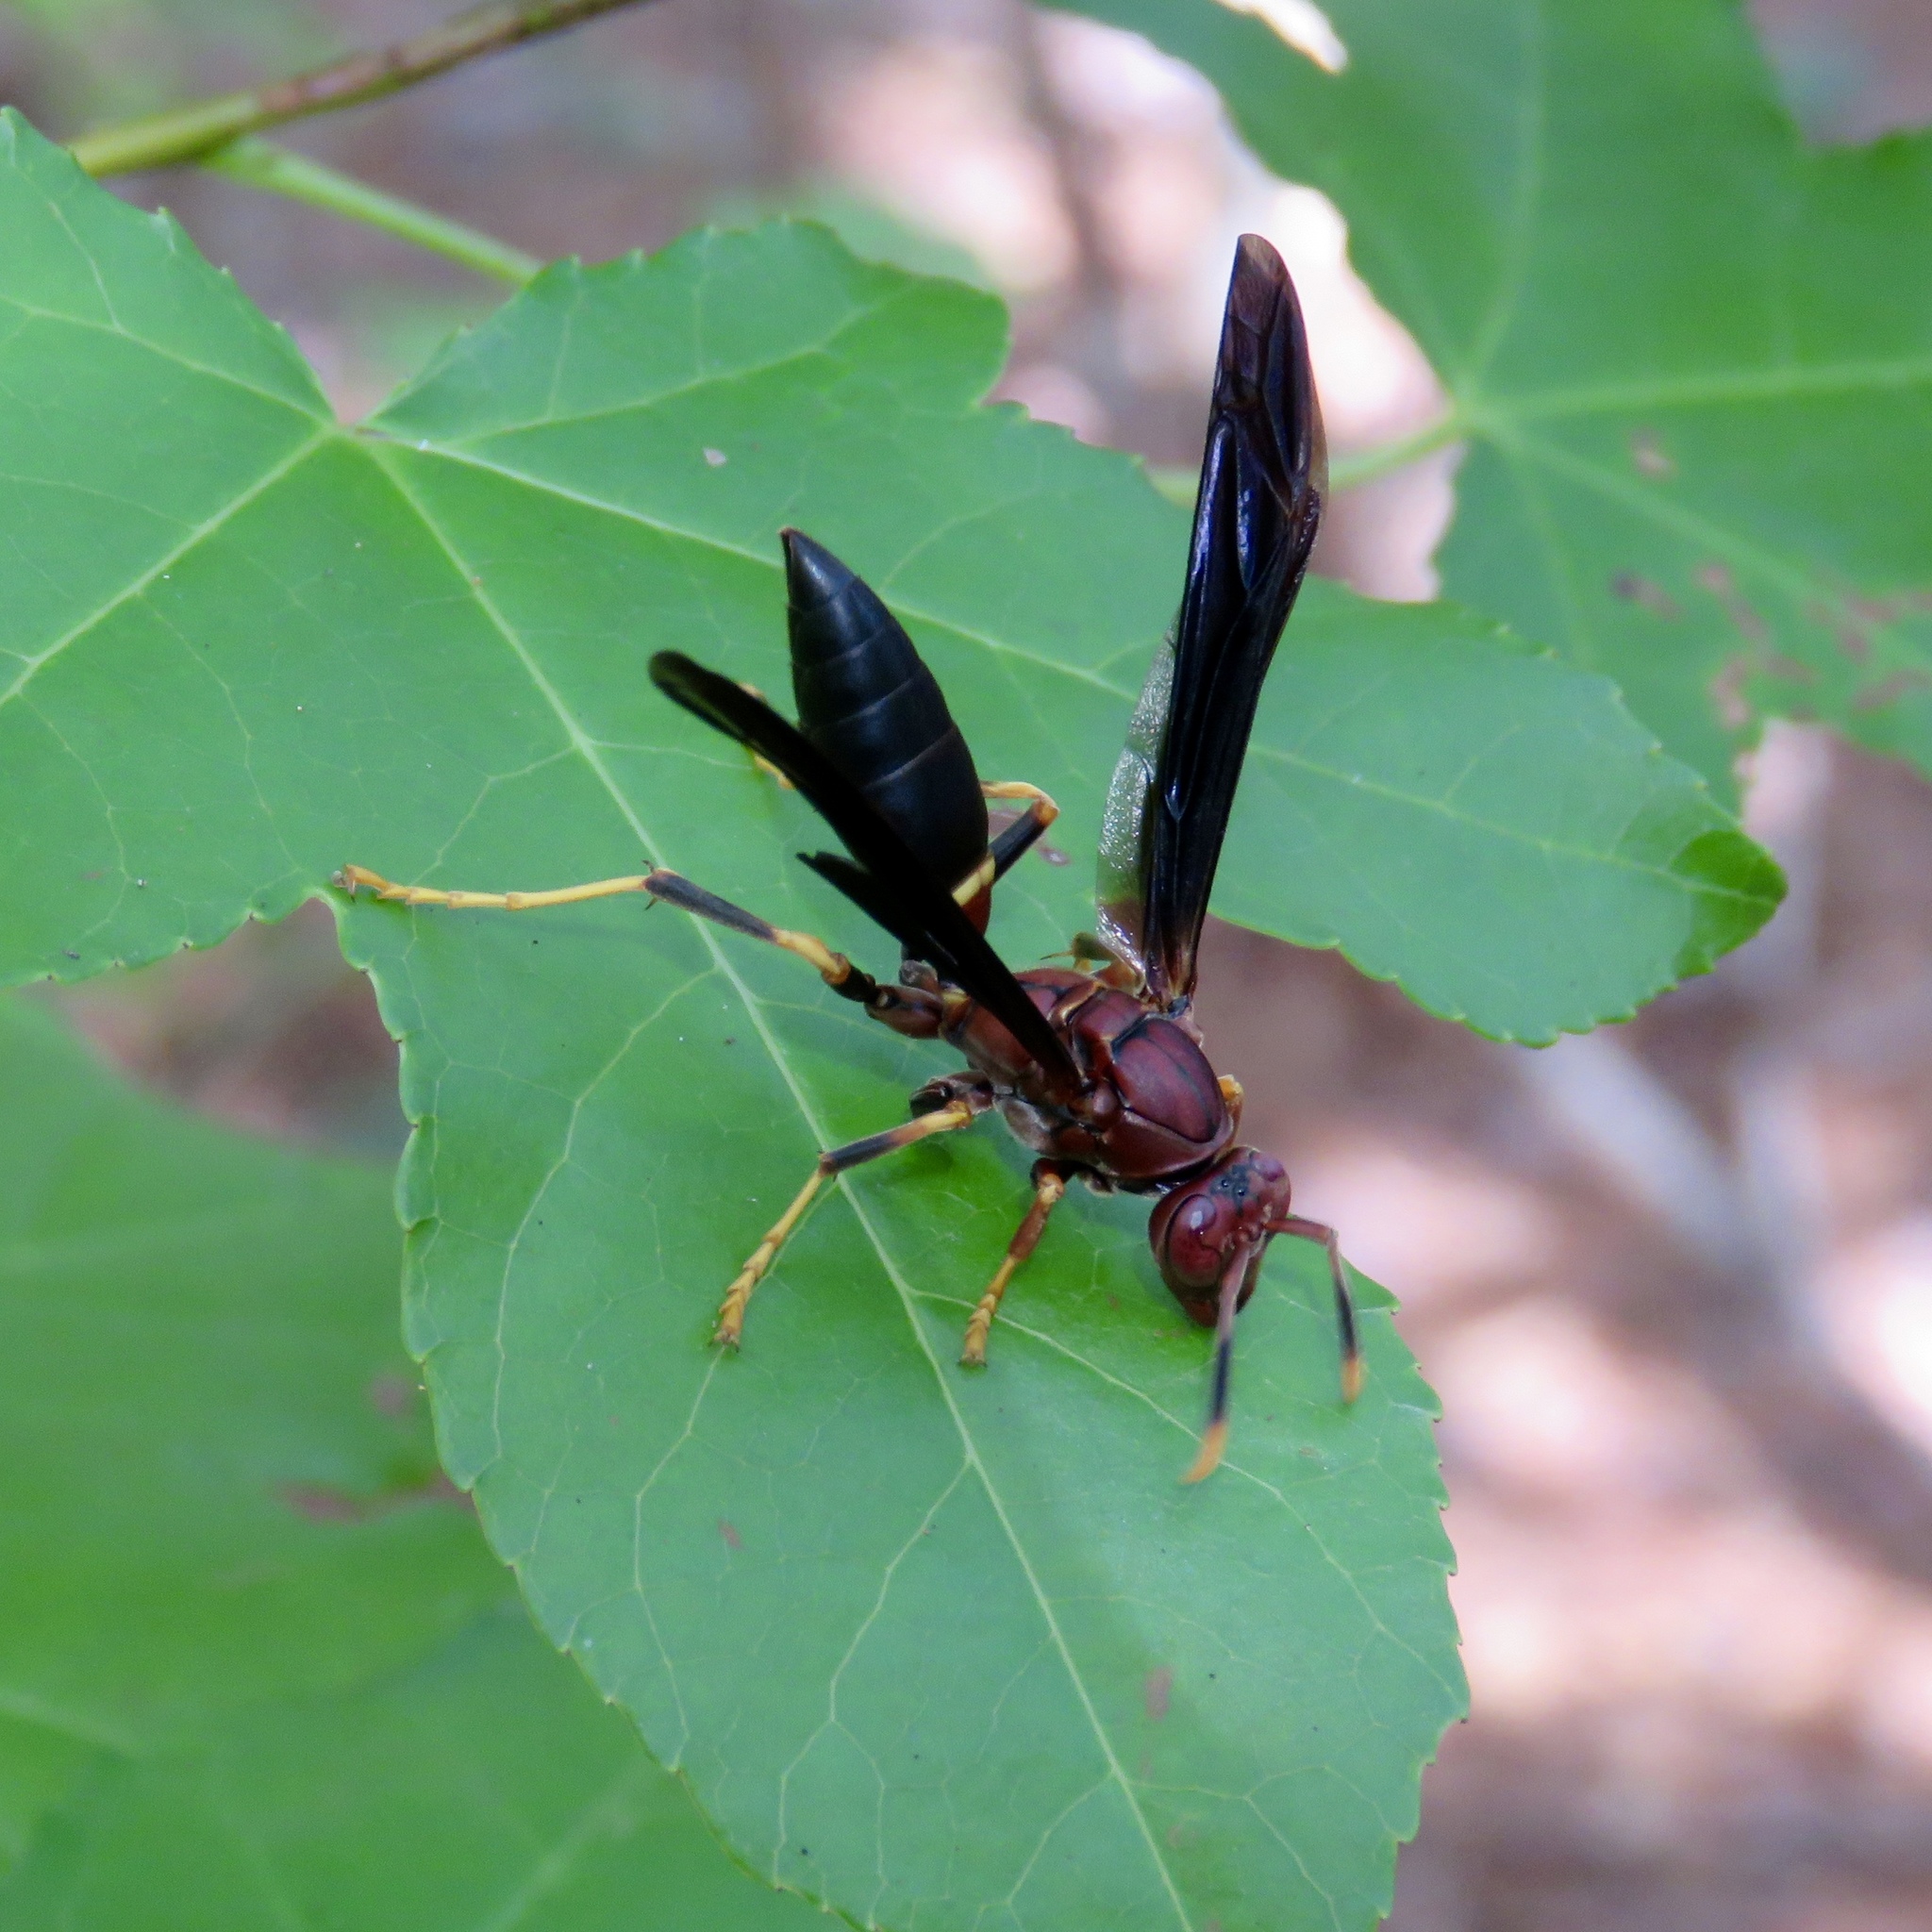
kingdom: Animalia
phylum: Arthropoda
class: Insecta
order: Hymenoptera
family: Eumenidae
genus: Polistes
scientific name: Polistes annularis
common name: Ringed paper wasp
